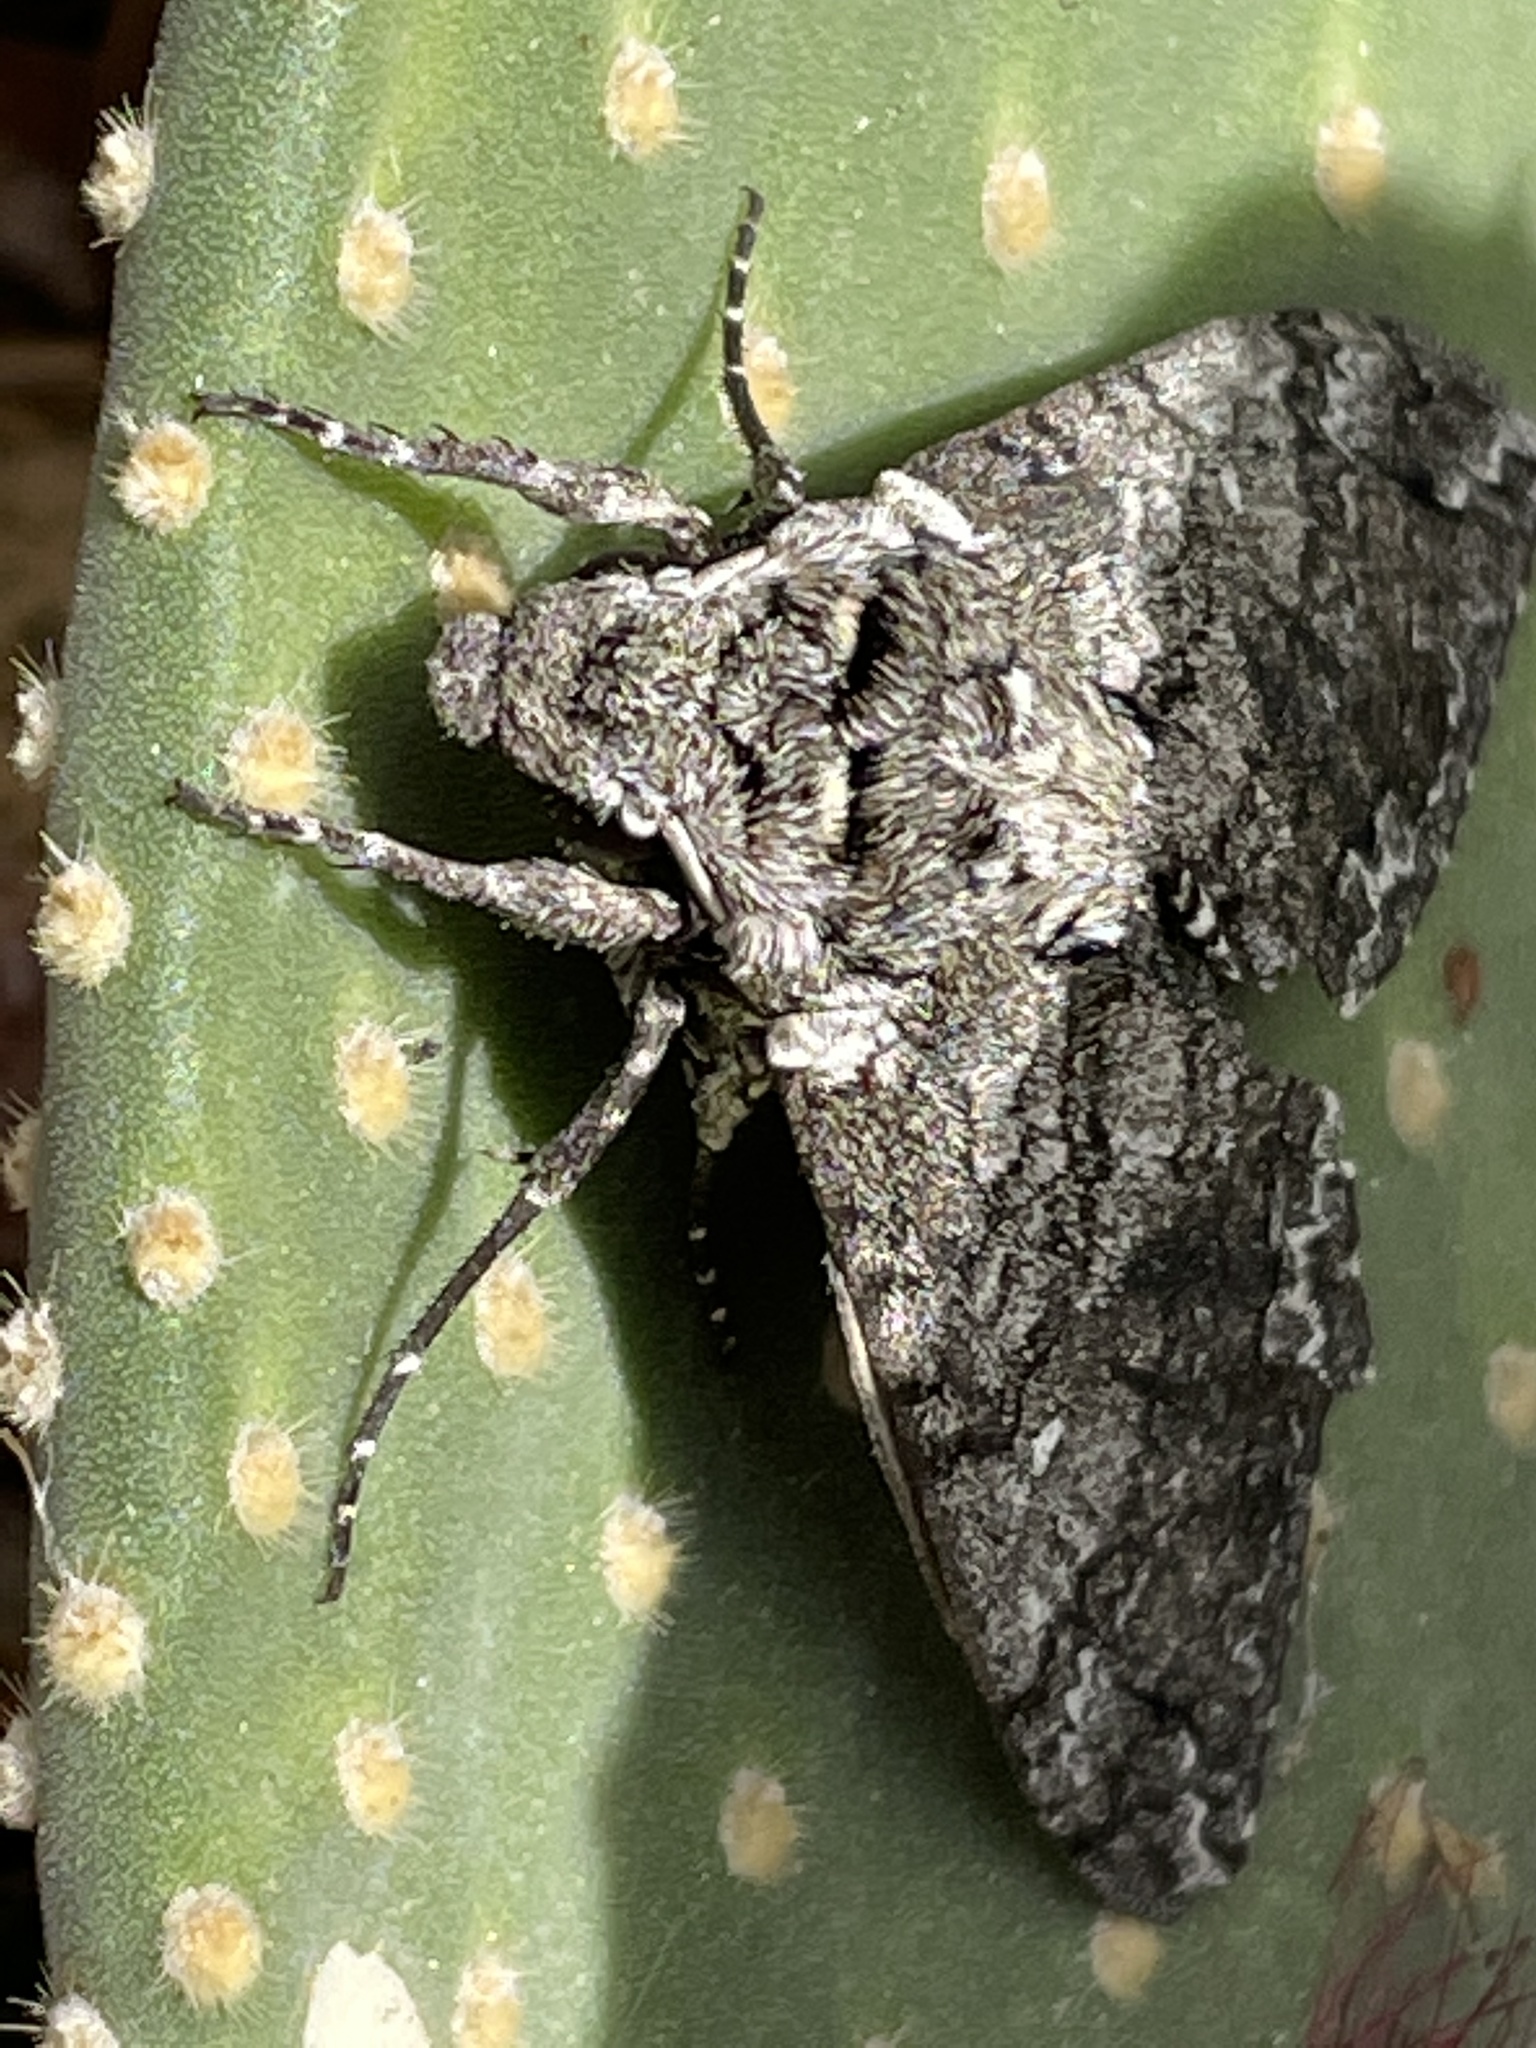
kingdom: Animalia
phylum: Arthropoda
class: Insecta
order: Lepidoptera
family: Sphingidae
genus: Manduca
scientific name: Manduca sexta
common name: Carolina sphinx
